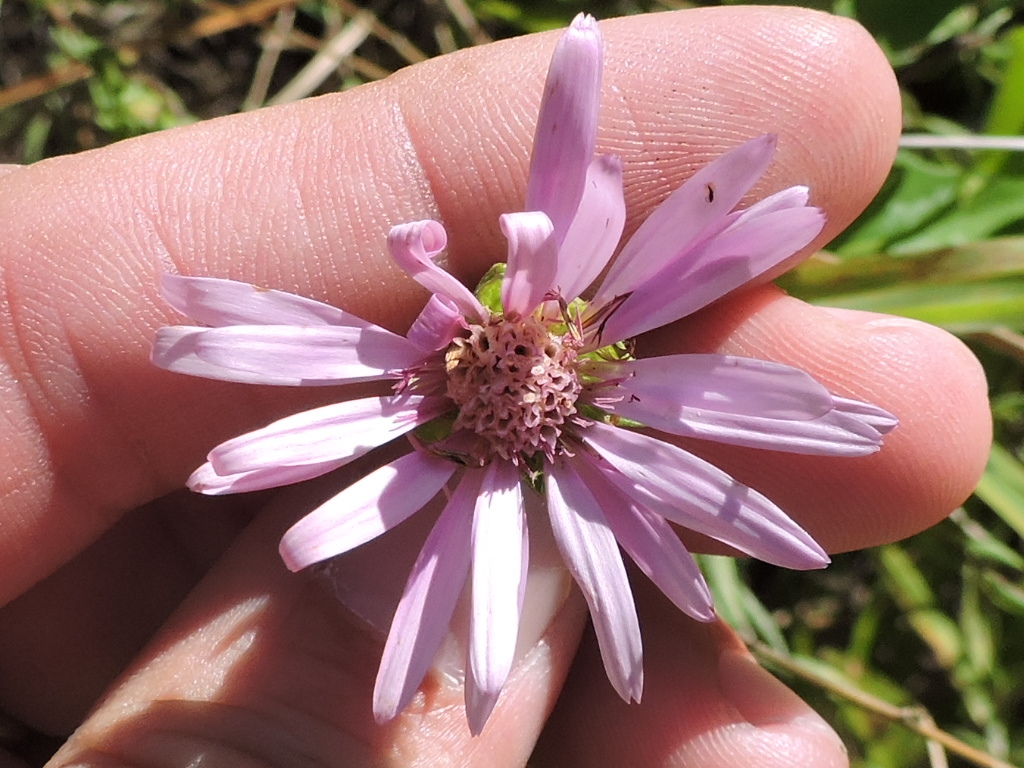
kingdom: Plantae
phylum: Tracheophyta
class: Magnoliopsida
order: Asterales
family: Asteraceae
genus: Symphyotrichum
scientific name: Symphyotrichum pratense
